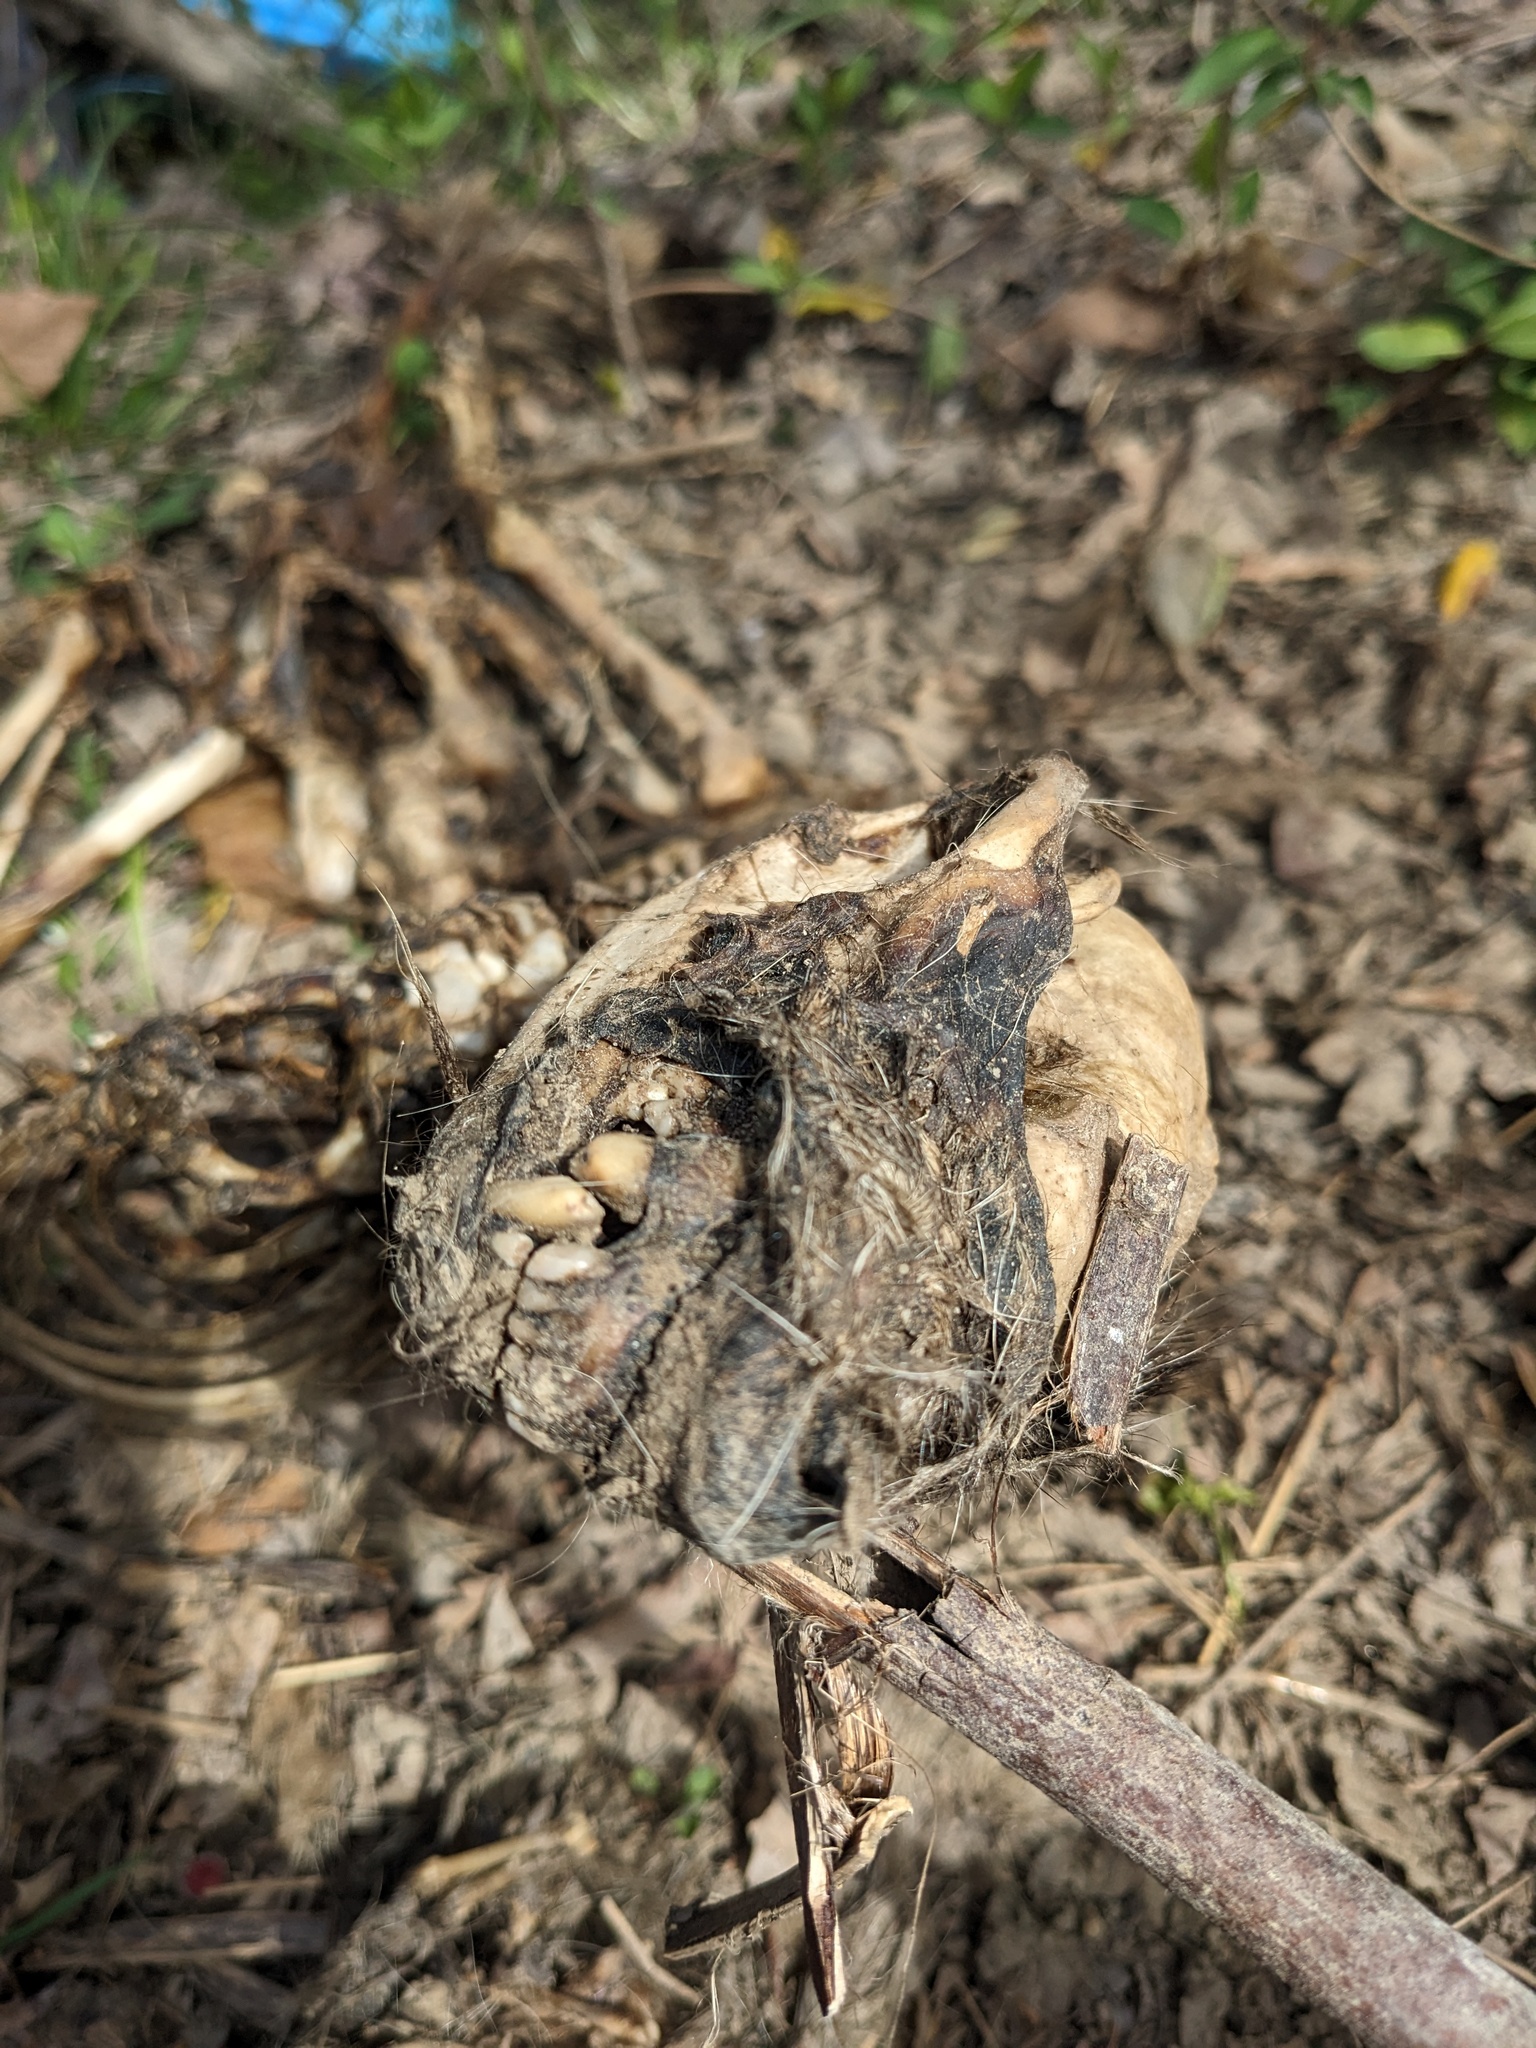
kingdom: Animalia
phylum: Chordata
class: Mammalia
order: Carnivora
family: Procyonidae
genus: Procyon
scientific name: Procyon lotor
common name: Raccoon
